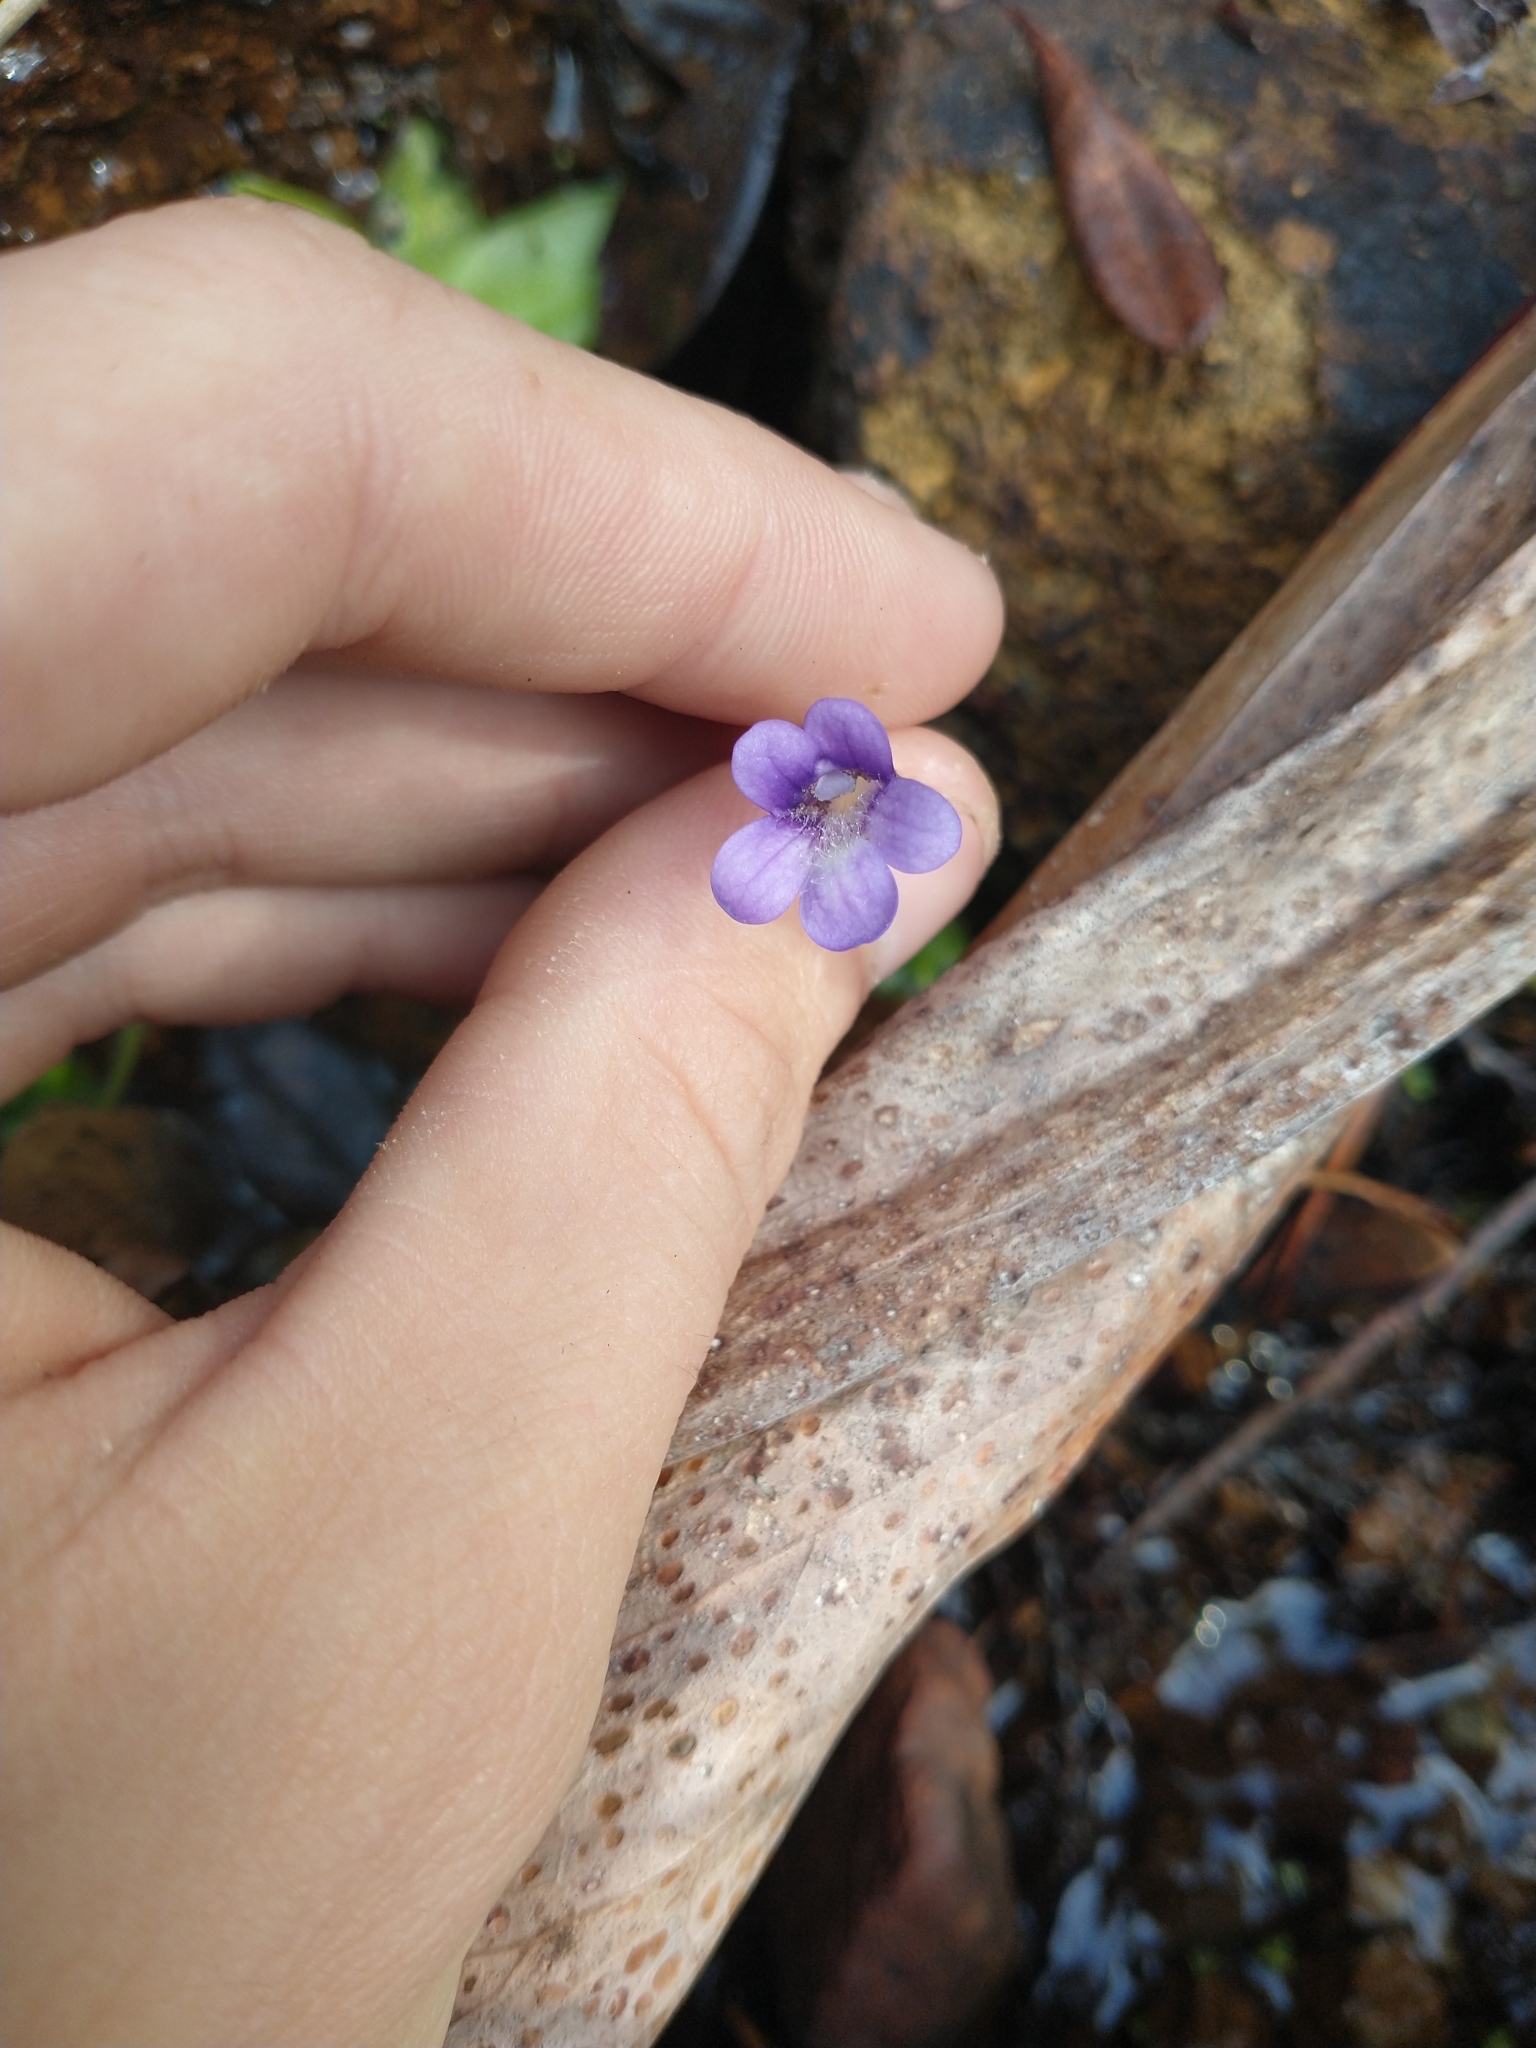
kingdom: Plantae
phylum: Tracheophyta
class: Magnoliopsida
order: Lamiales
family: Lentibulariaceae
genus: Pinguicula
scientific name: Pinguicula macroceras
